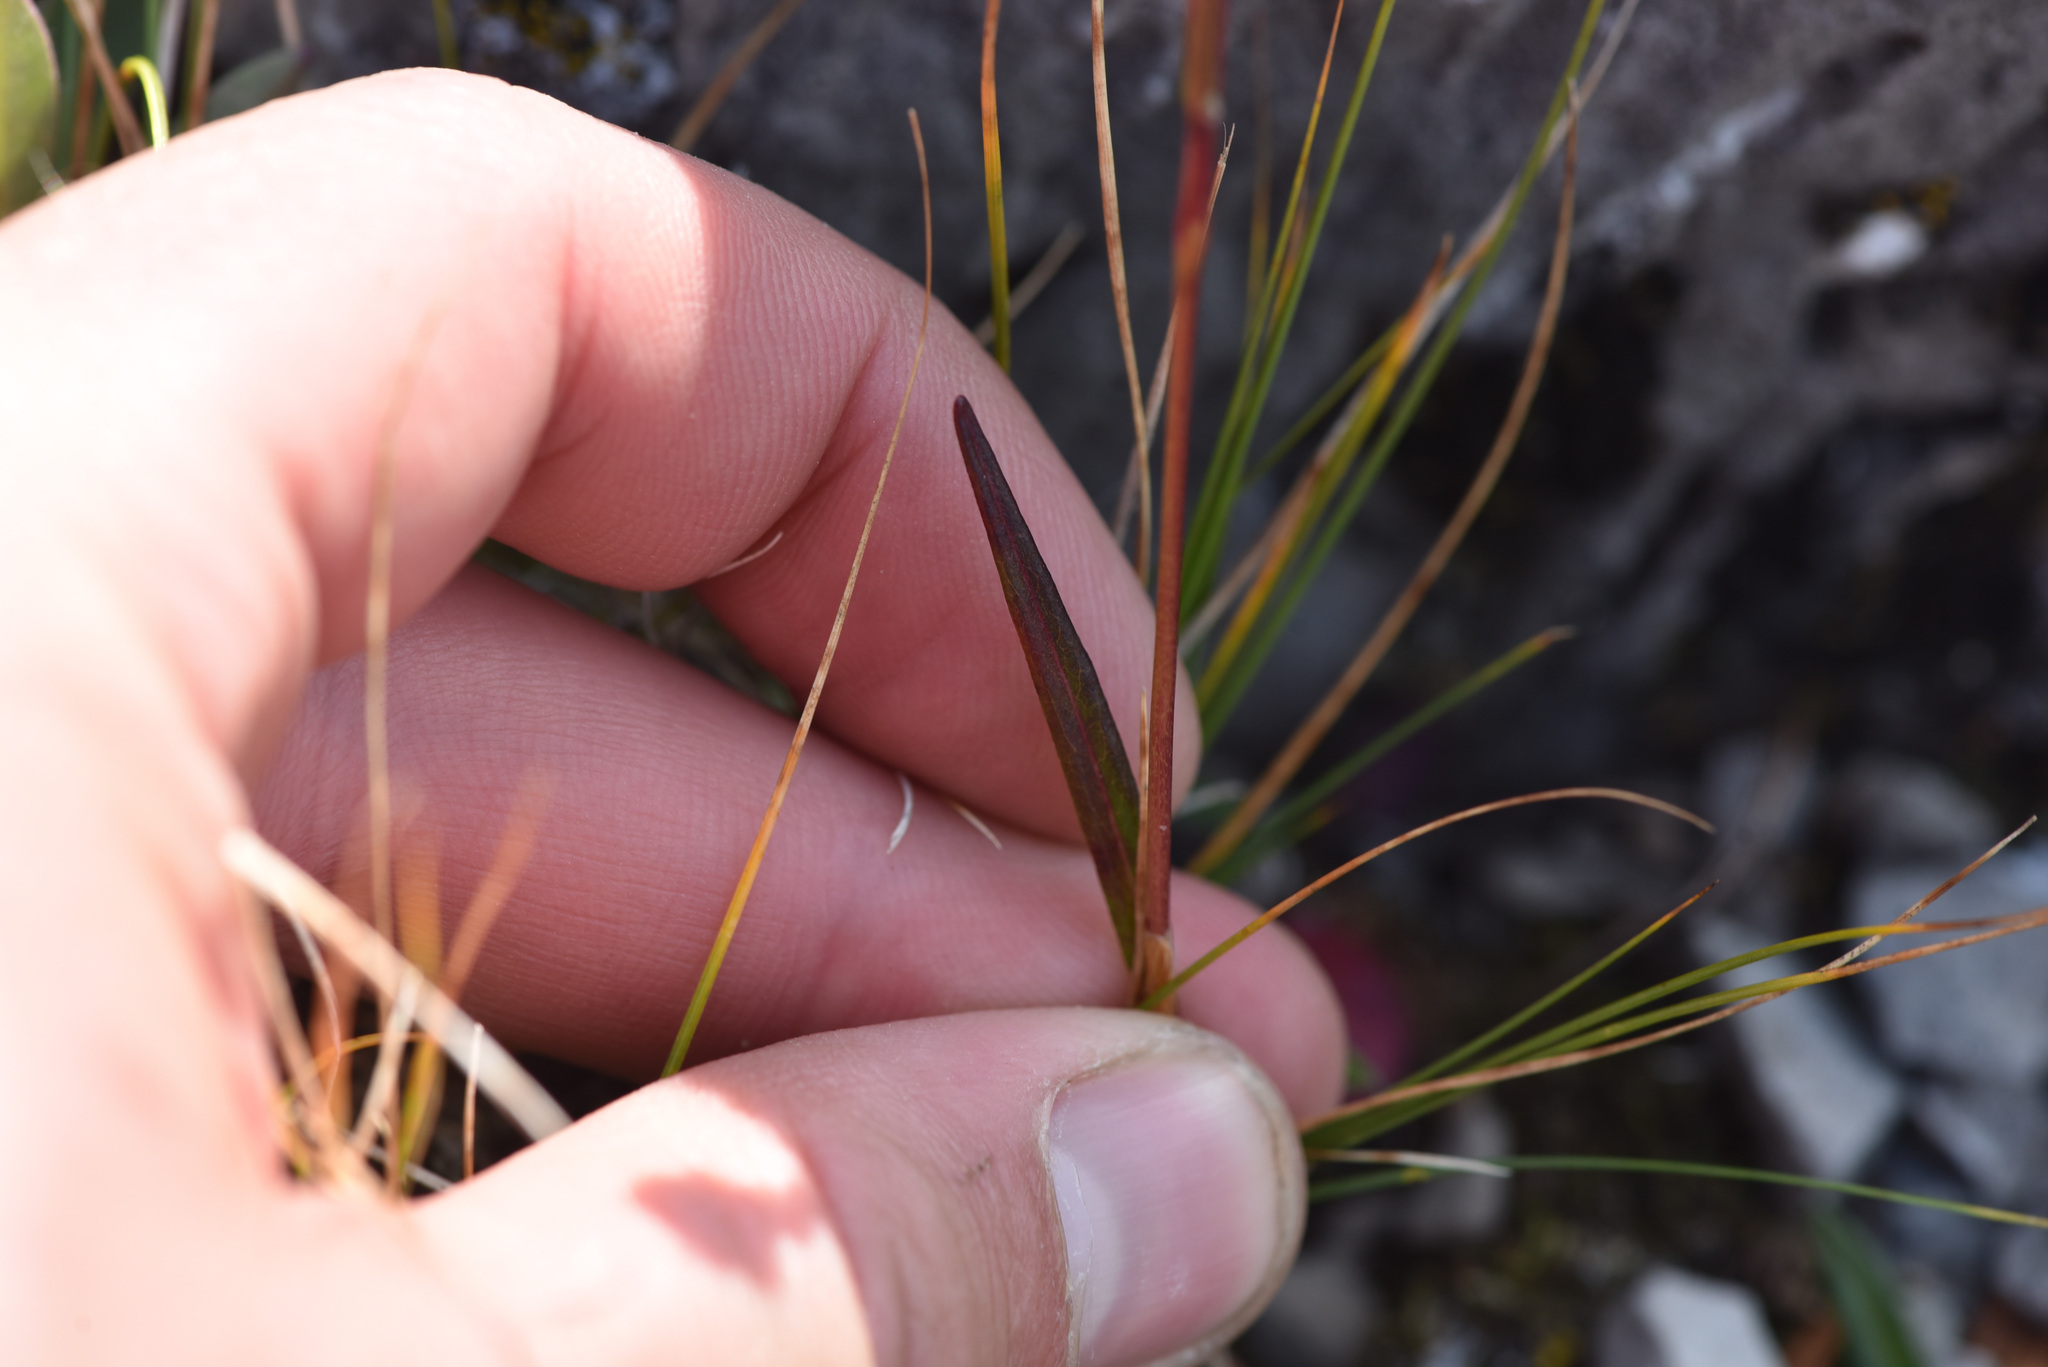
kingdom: Plantae
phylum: Tracheophyta
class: Magnoliopsida
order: Caryophyllales
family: Polygonaceae
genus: Bistorta
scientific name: Bistorta vivipara
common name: Alpine bistort
